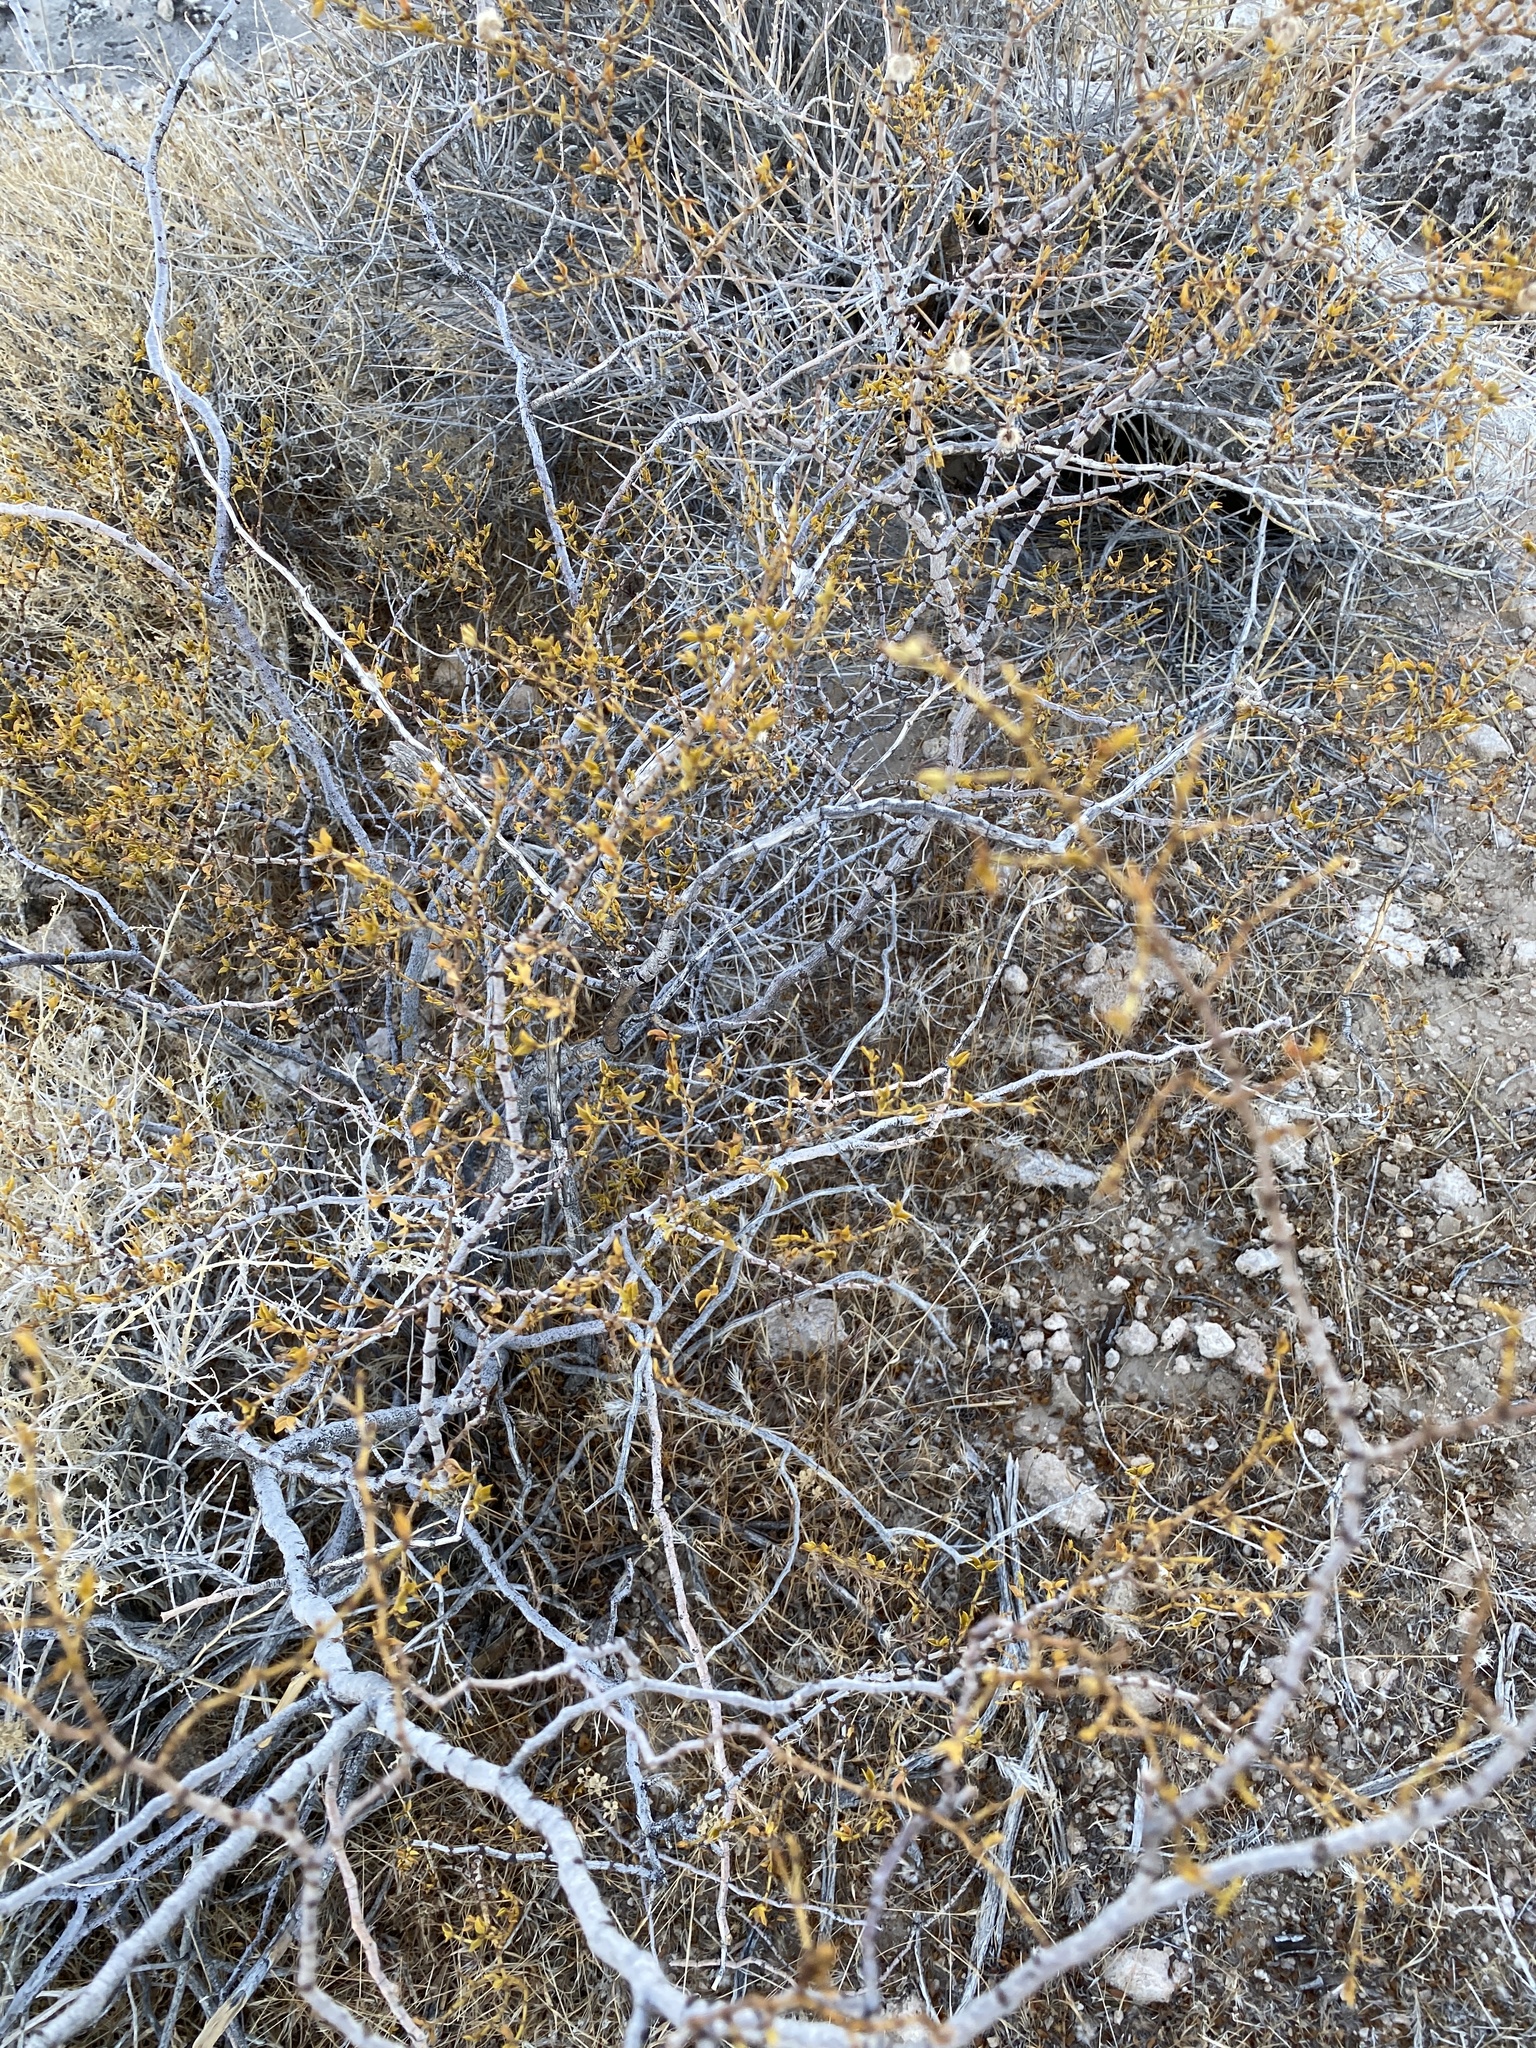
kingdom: Plantae
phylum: Tracheophyta
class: Magnoliopsida
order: Zygophyllales
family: Zygophyllaceae
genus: Larrea
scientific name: Larrea tridentata
